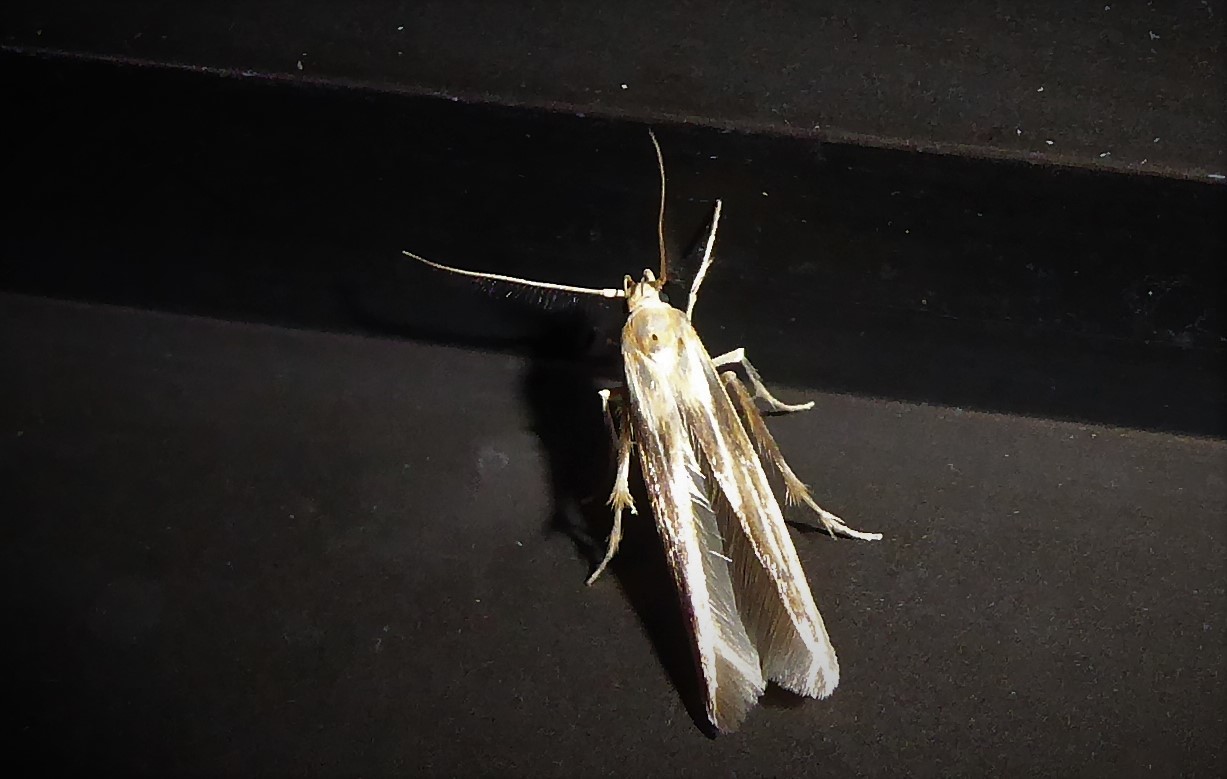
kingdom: Animalia
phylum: Arthropoda
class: Insecta
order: Lepidoptera
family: Stathmopodidae
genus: Stathmopoda
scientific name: Stathmopoda aposema
